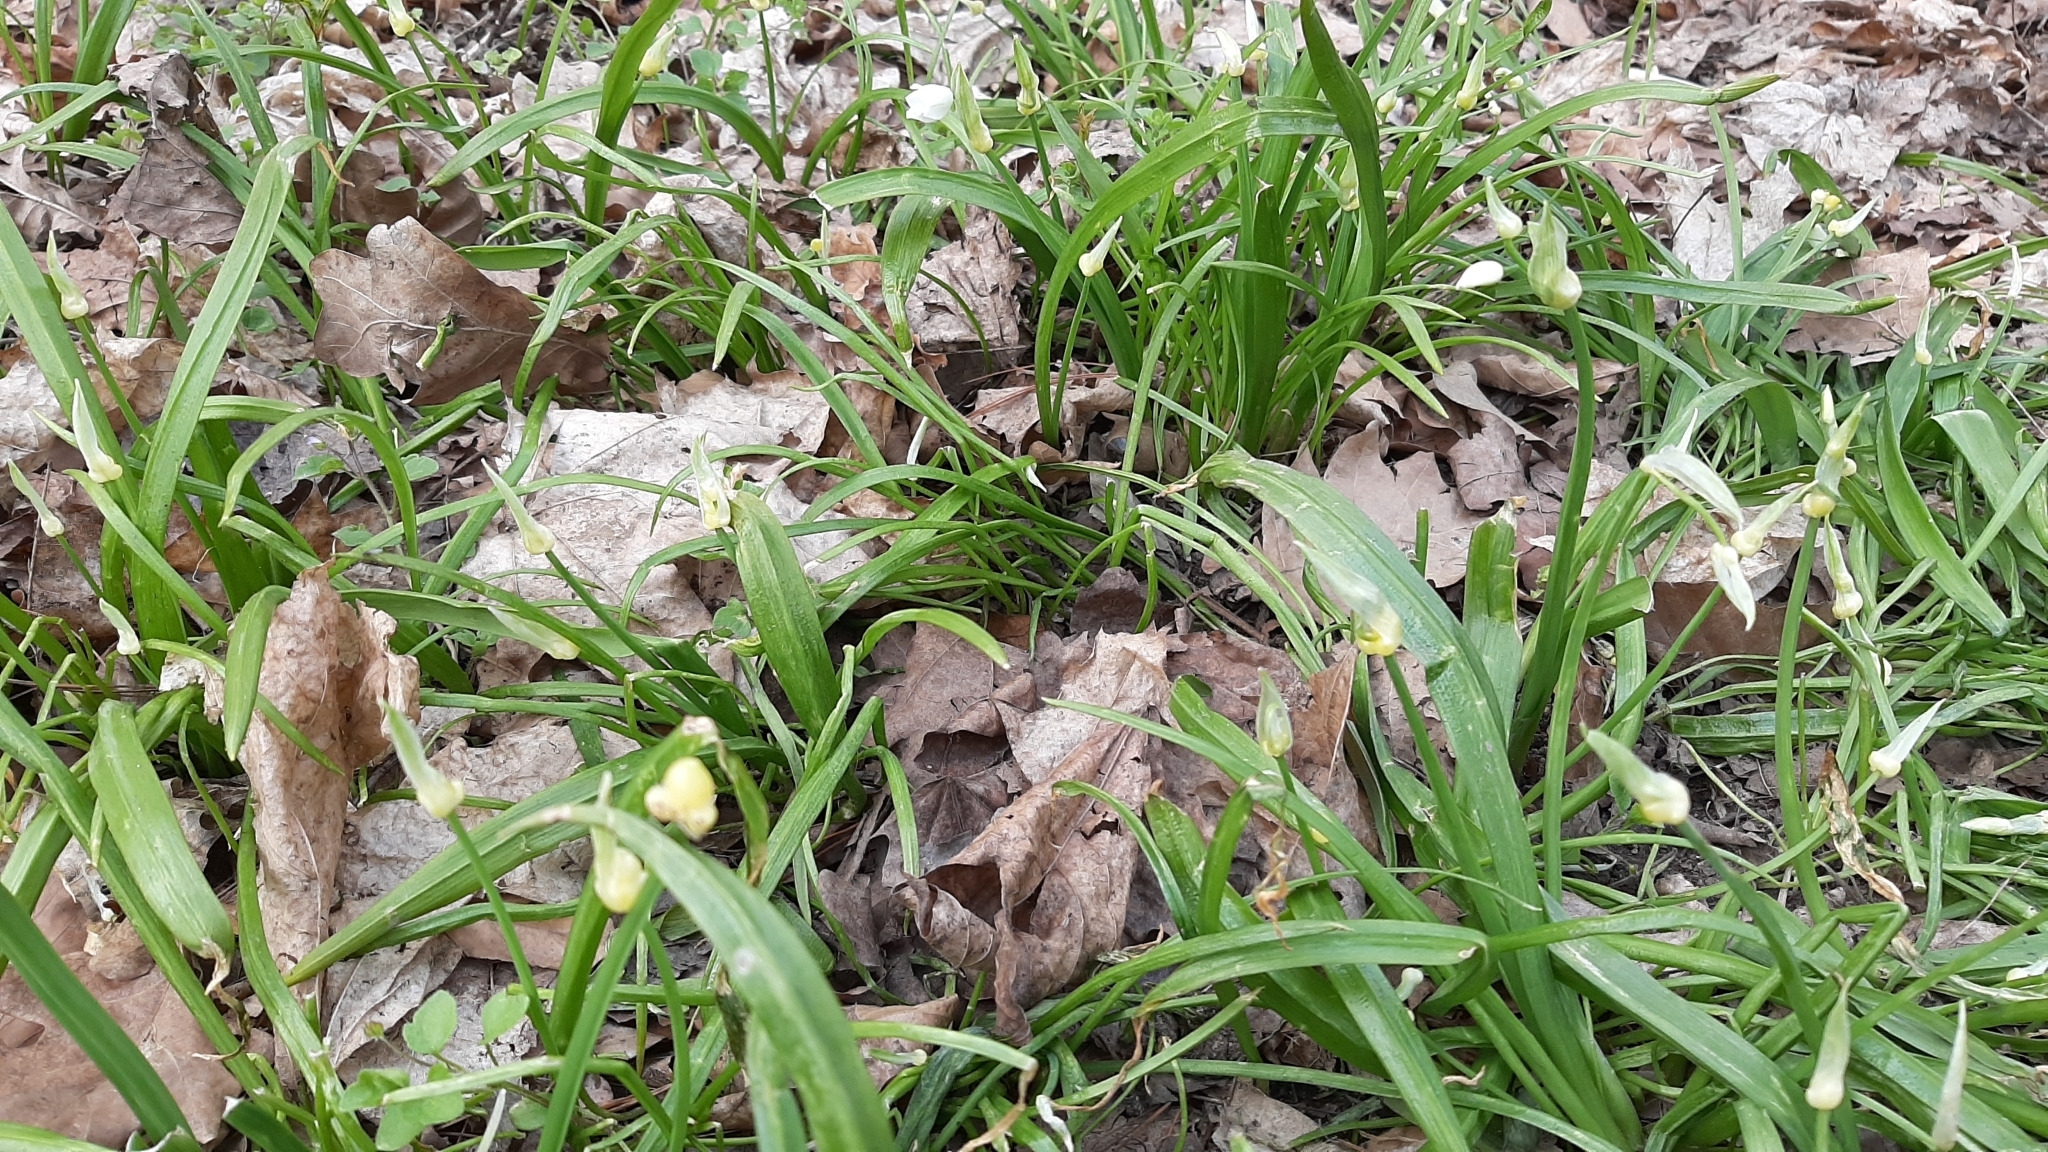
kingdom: Plantae
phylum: Tracheophyta
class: Liliopsida
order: Asparagales
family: Amaryllidaceae
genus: Allium
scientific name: Allium paradoxum
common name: Few-flowered garlic
